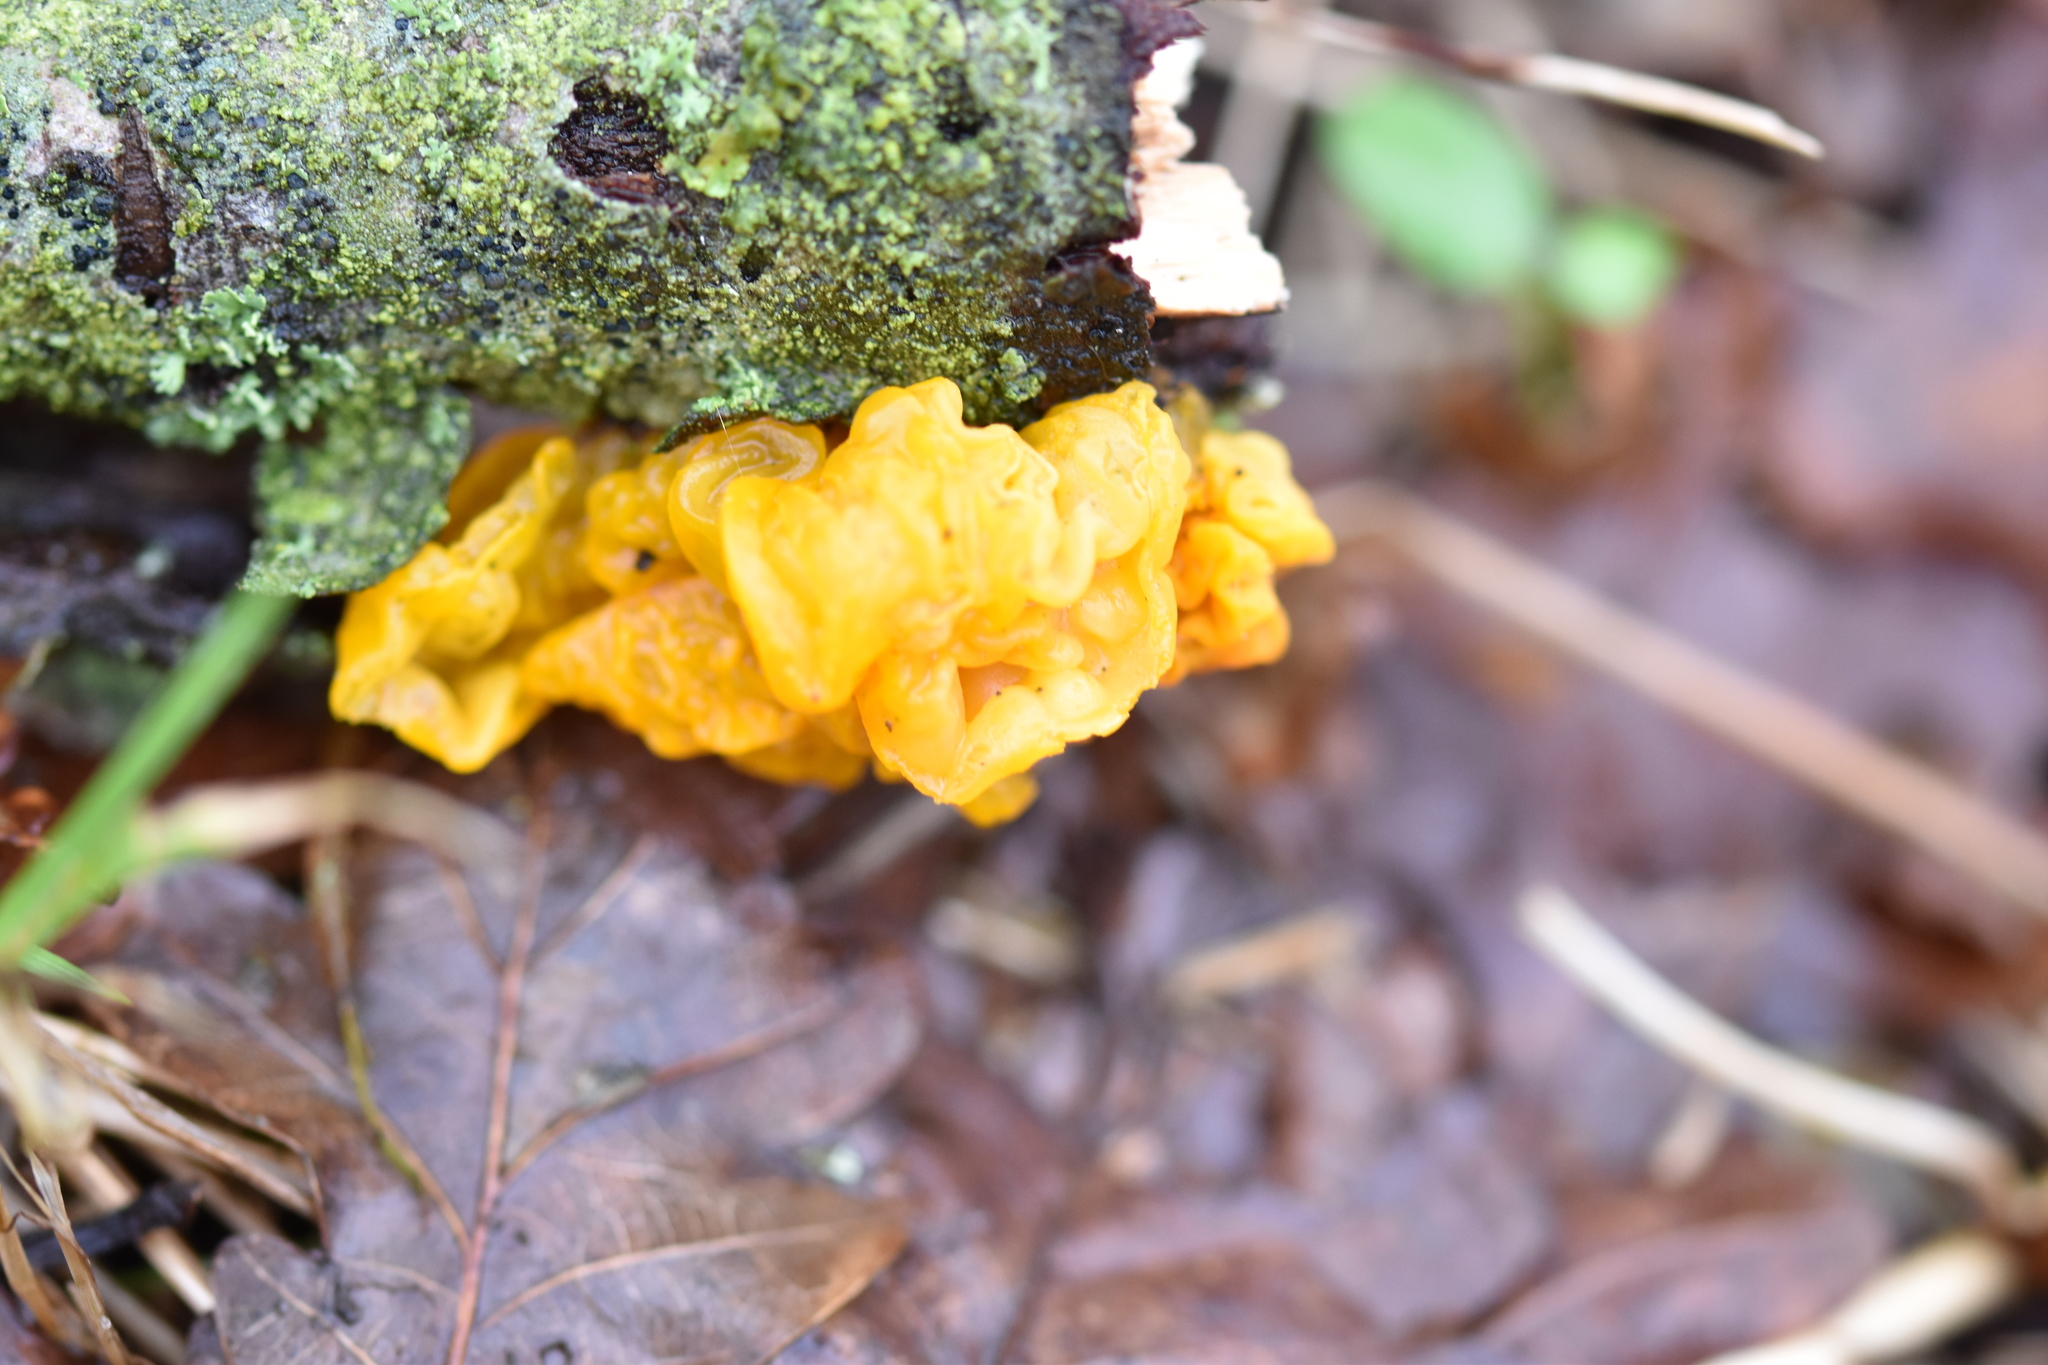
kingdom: Fungi
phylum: Basidiomycota
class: Tremellomycetes
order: Tremellales
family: Tremellaceae
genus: Tremella
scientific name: Tremella mesenterica
